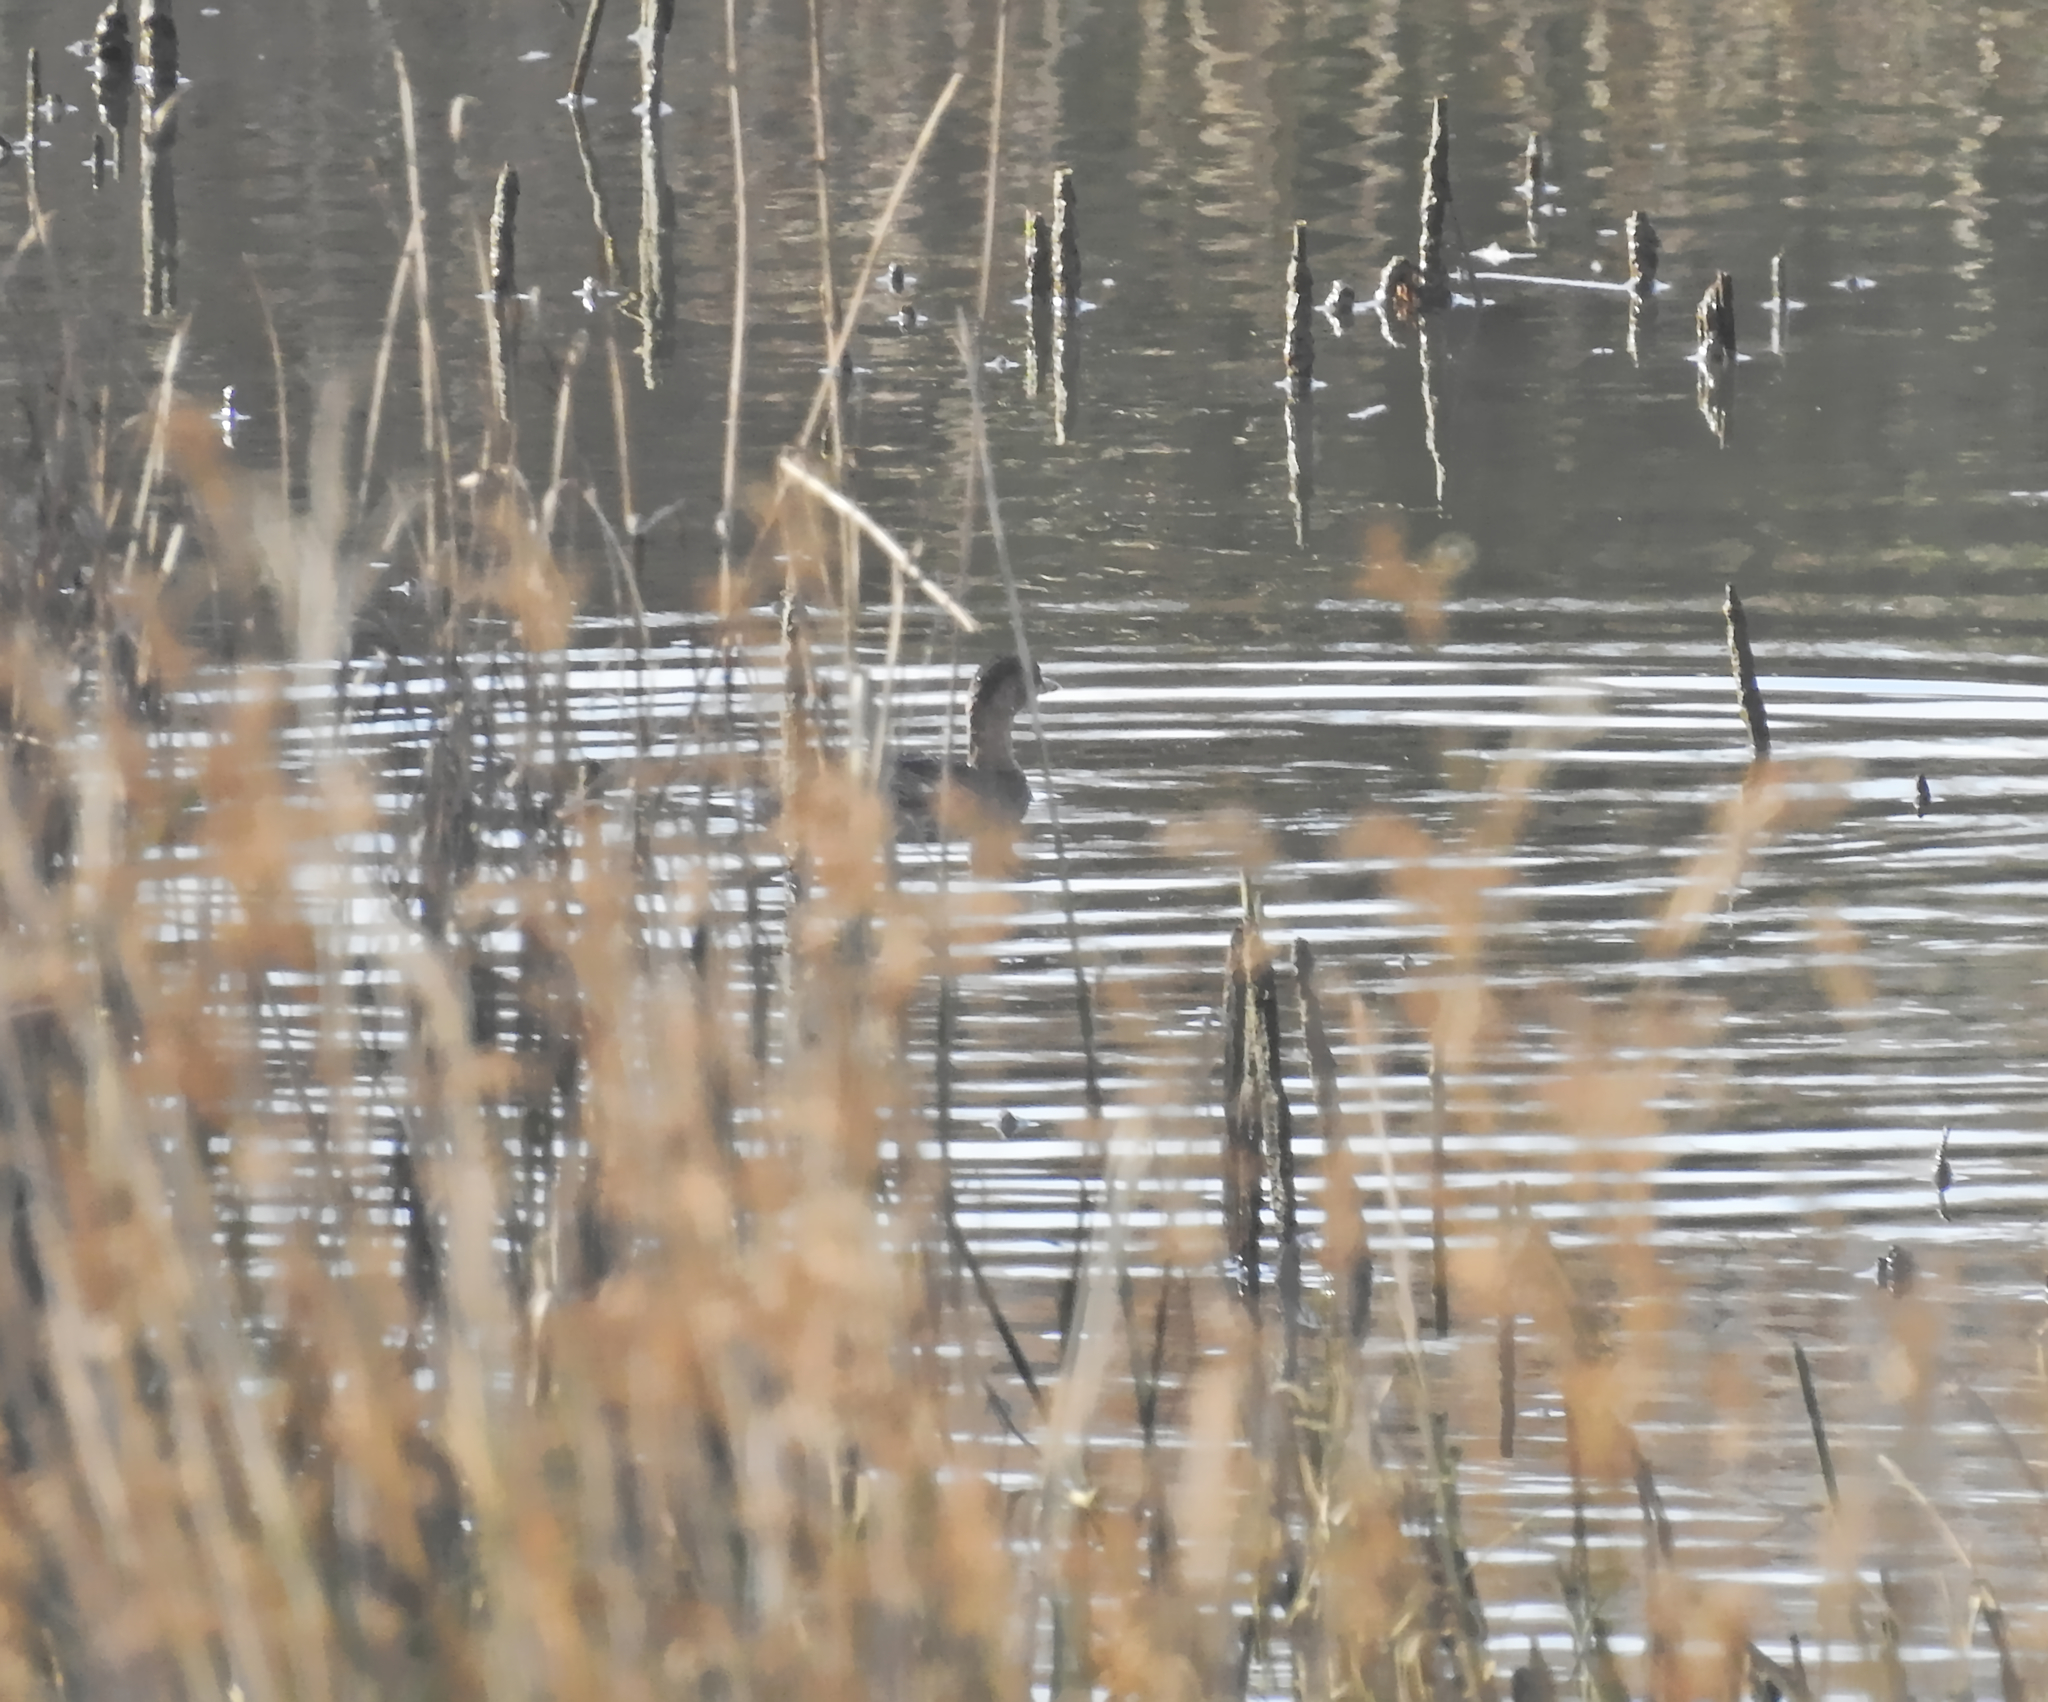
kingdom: Animalia
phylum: Chordata
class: Aves
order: Podicipediformes
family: Podicipedidae
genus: Tachybaptus
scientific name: Tachybaptus ruficollis
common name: Little grebe
